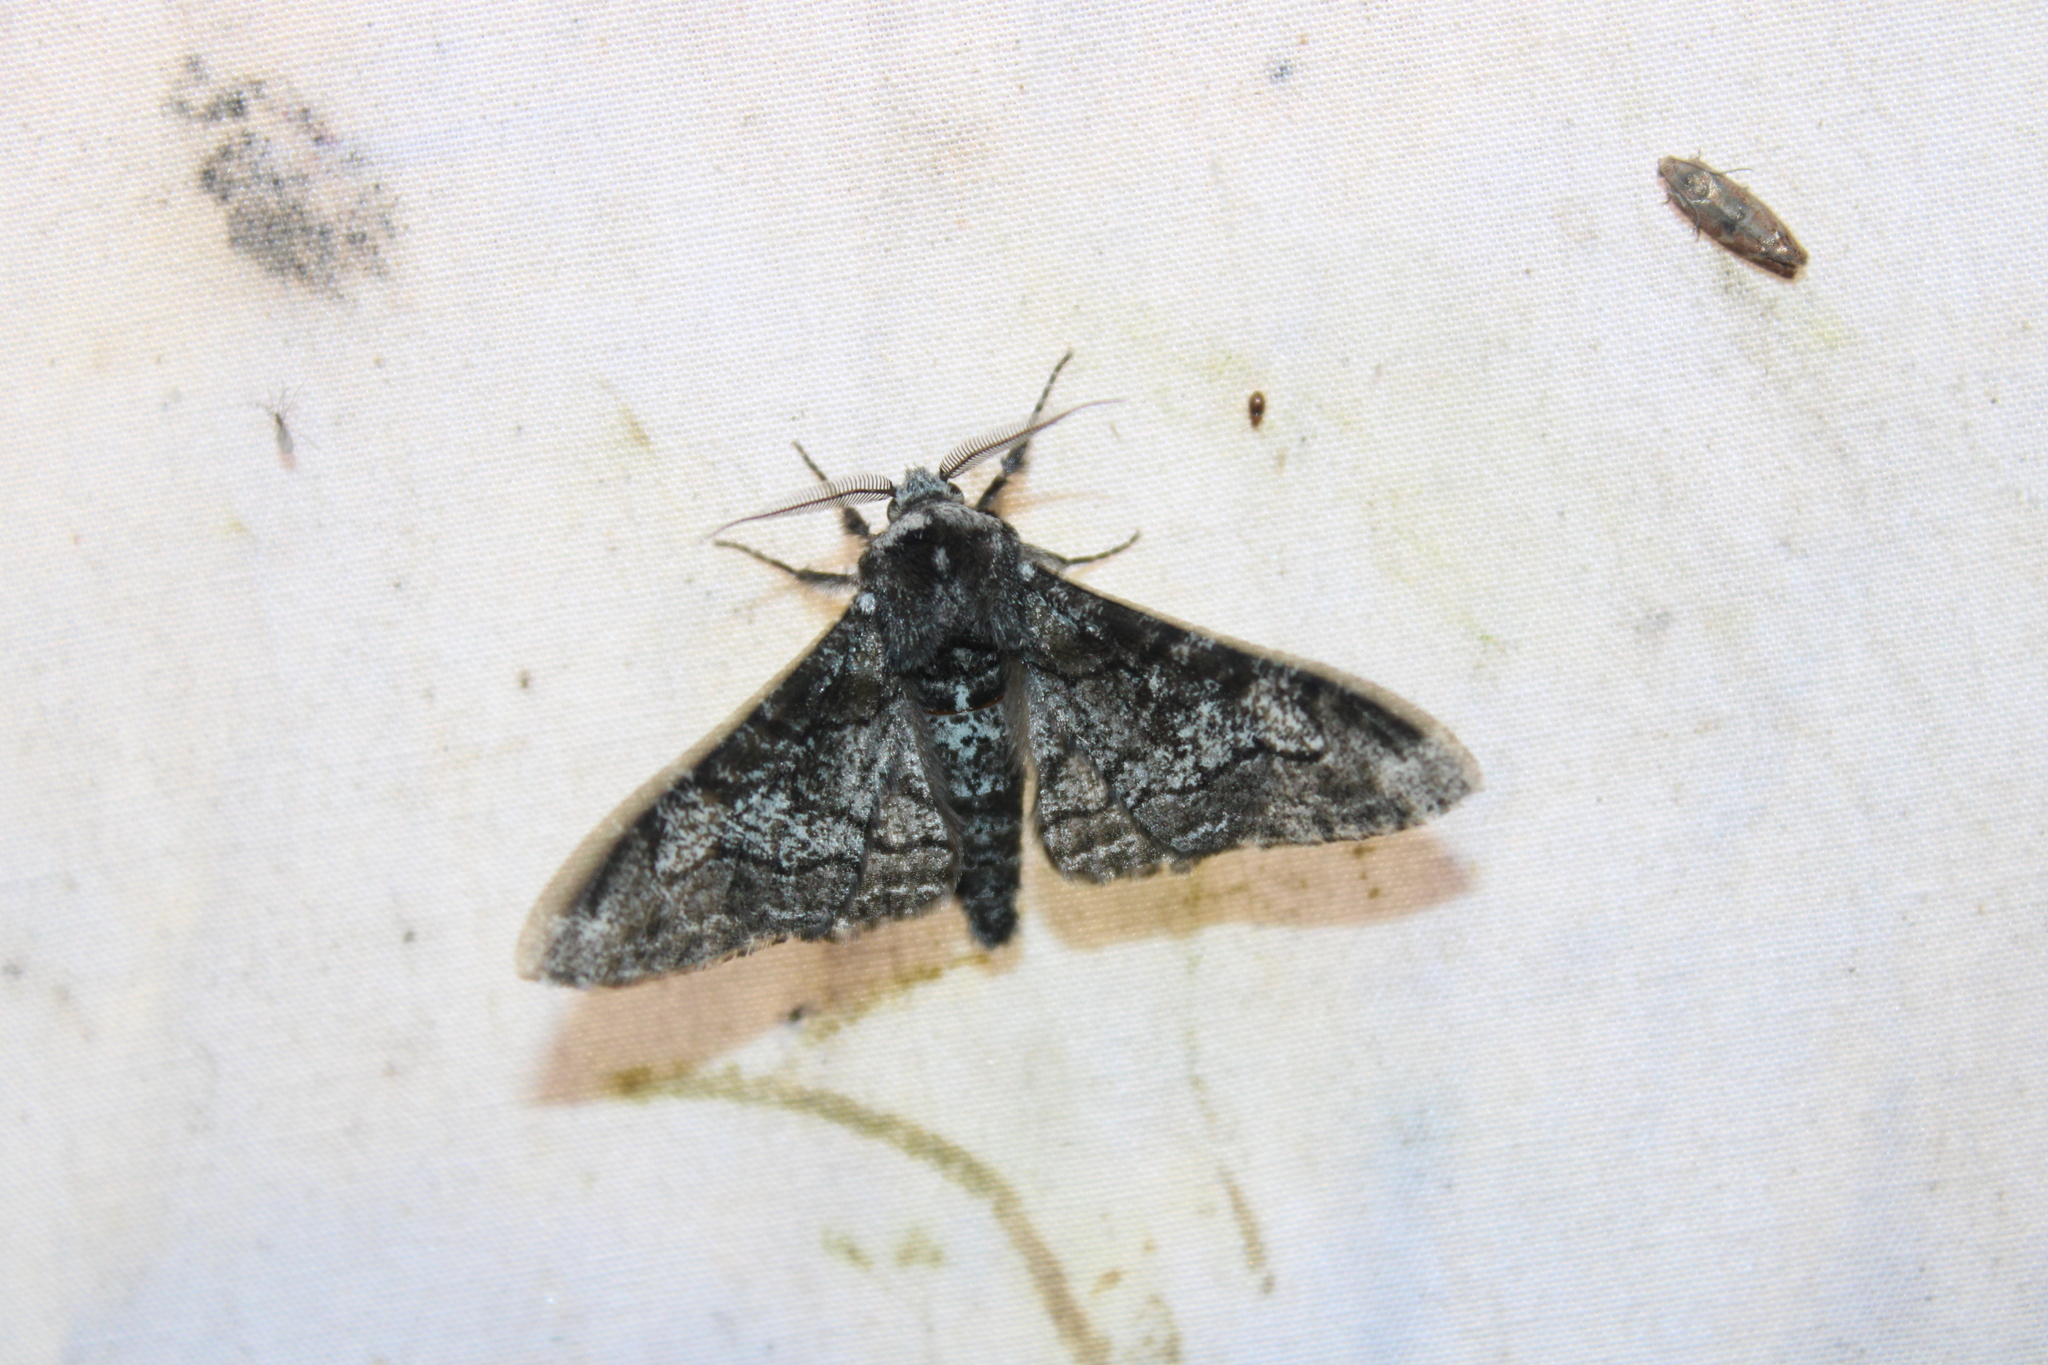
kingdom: Animalia
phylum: Arthropoda
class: Insecta
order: Lepidoptera
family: Geometridae
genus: Biston
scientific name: Biston betularia
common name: Peppered moth
